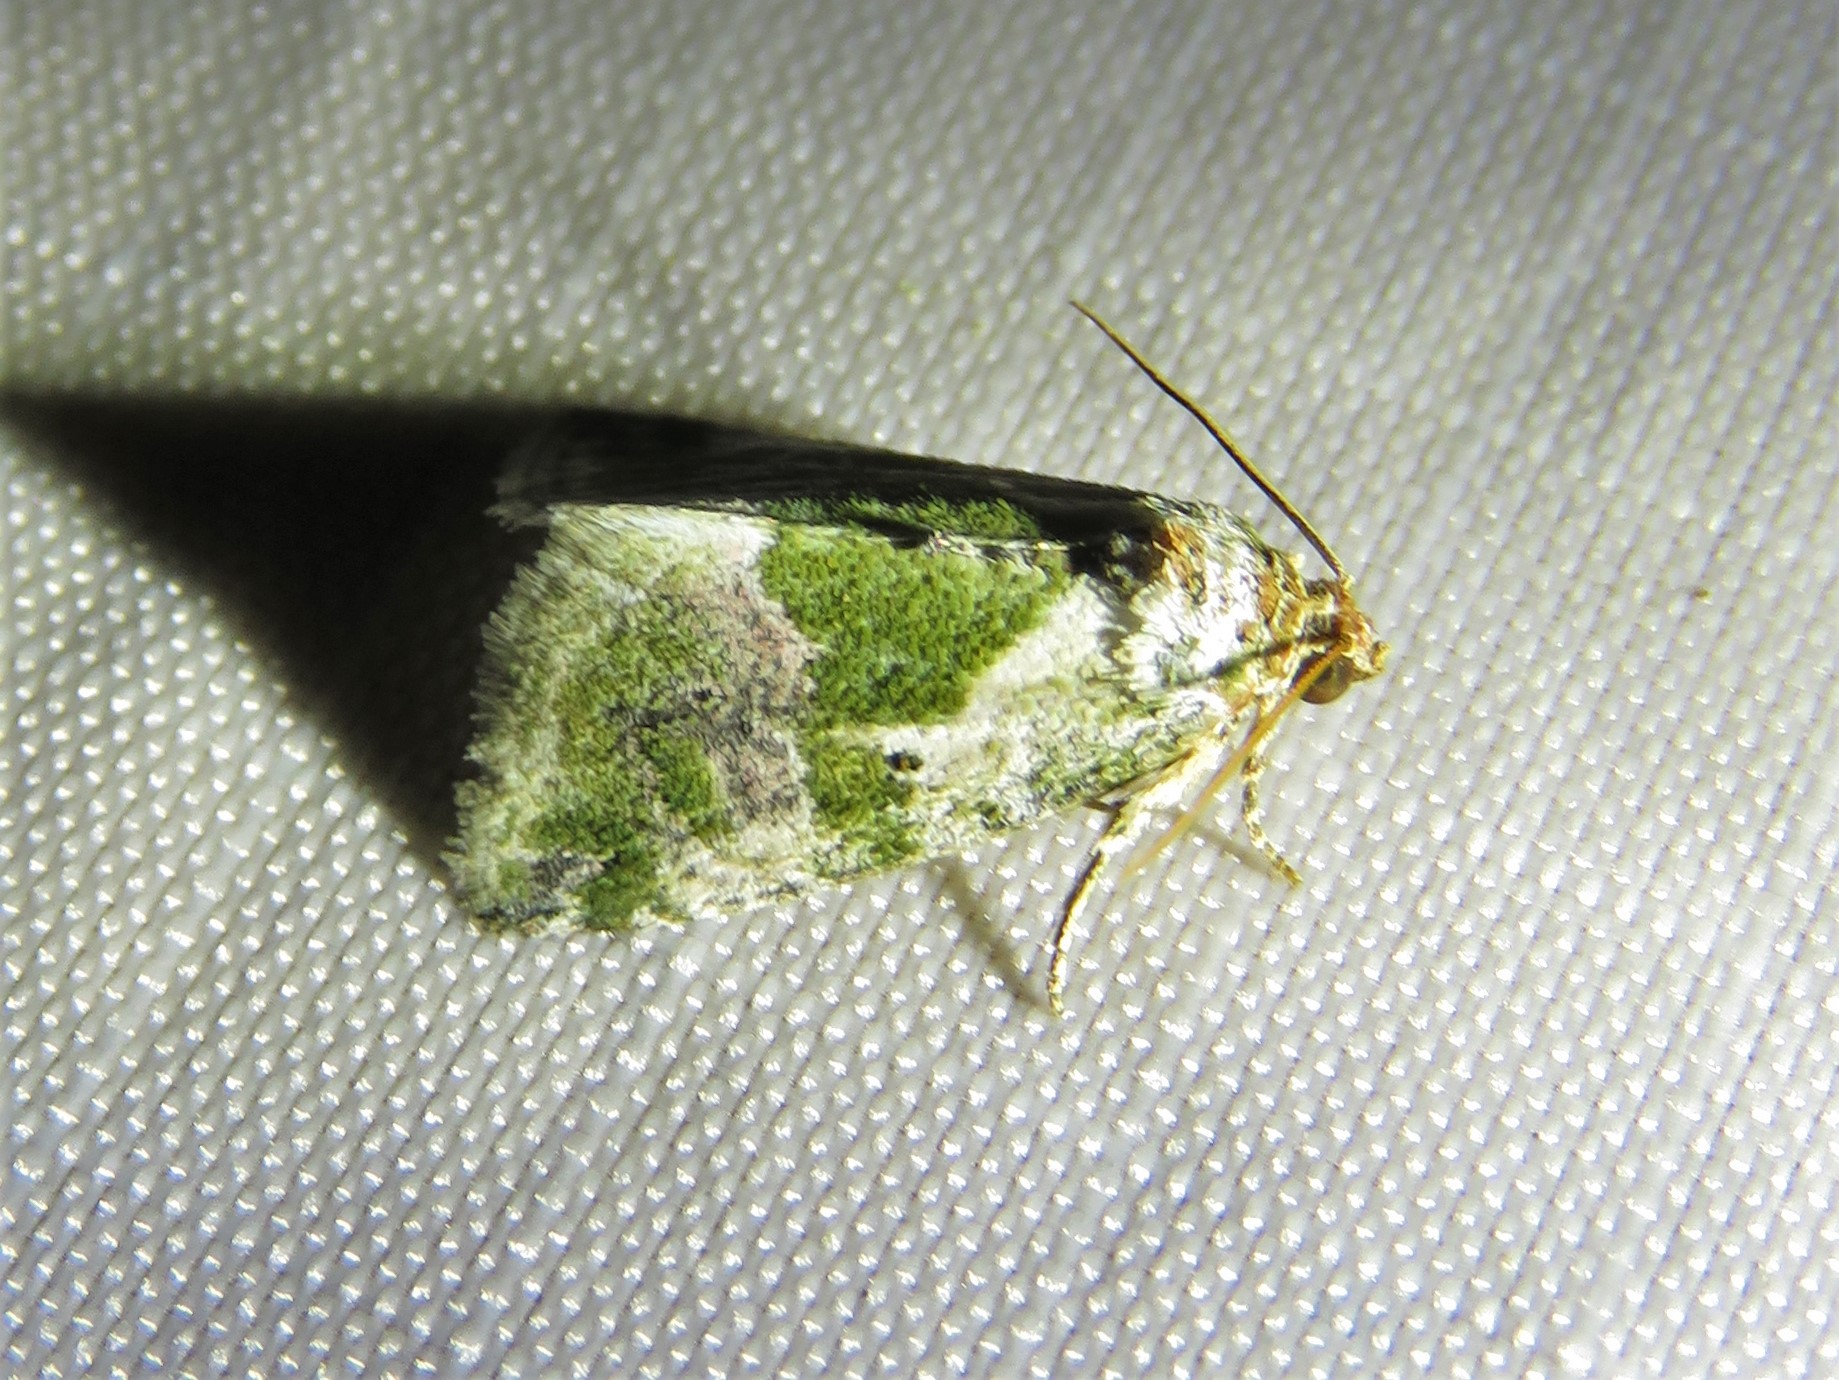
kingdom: Animalia
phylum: Arthropoda
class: Insecta
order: Lepidoptera
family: Noctuidae
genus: Maliattha
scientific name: Maliattha synochitis
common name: Black-dotted glyph
